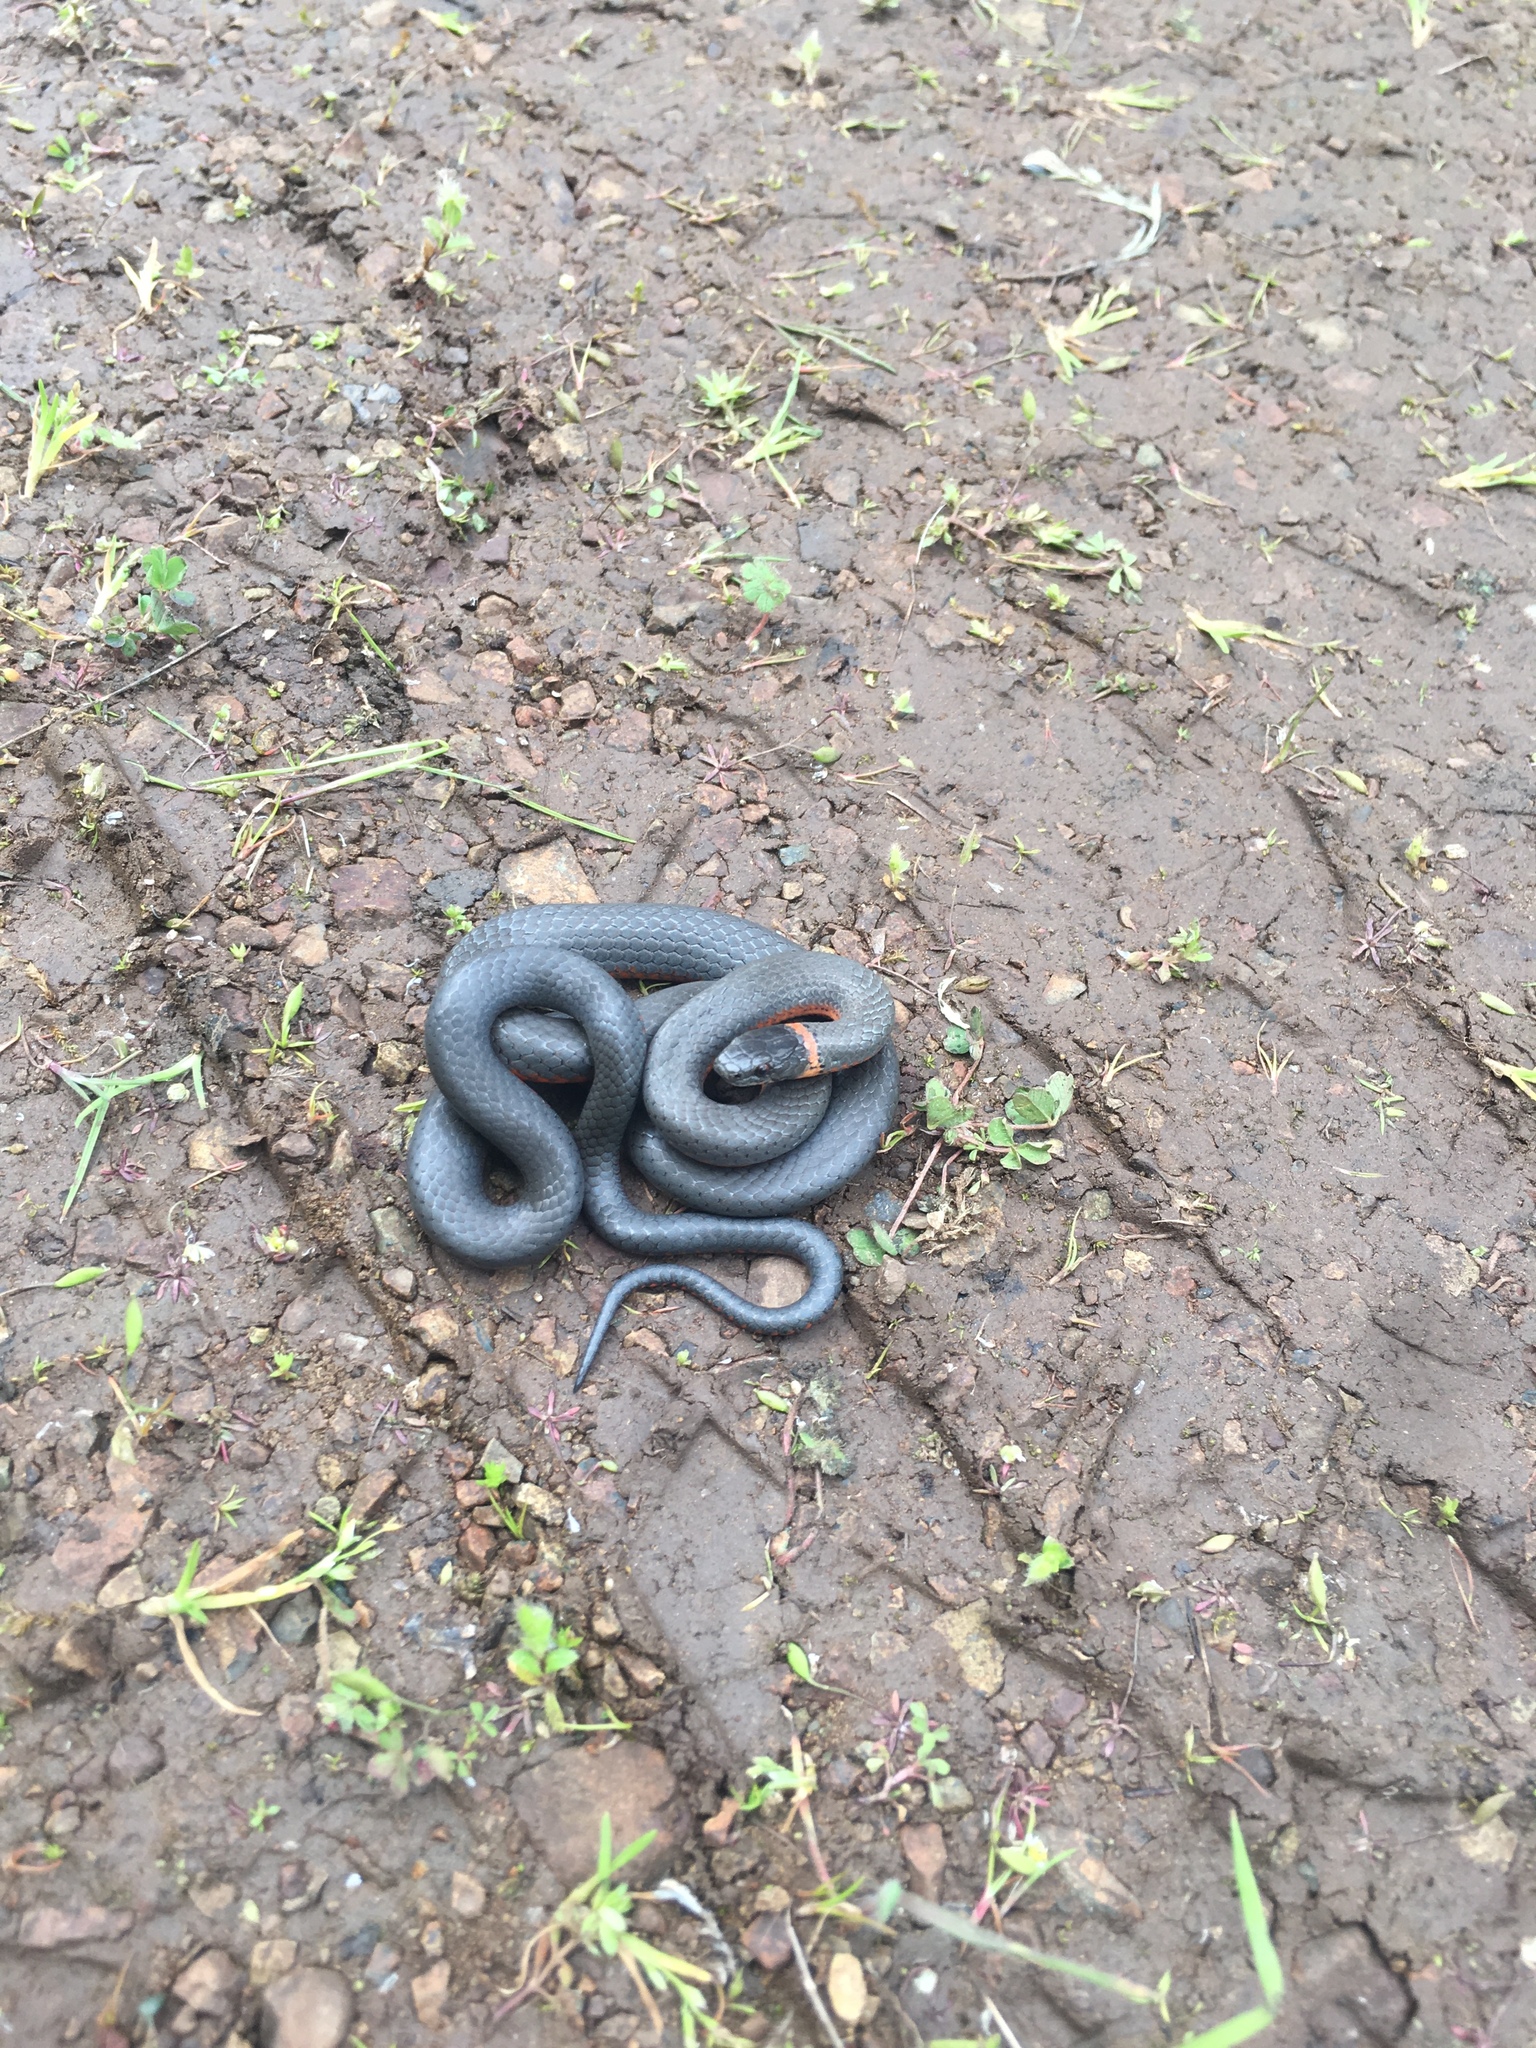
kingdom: Animalia
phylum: Chordata
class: Squamata
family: Colubridae
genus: Diadophis
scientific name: Diadophis punctatus
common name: Ringneck snake
